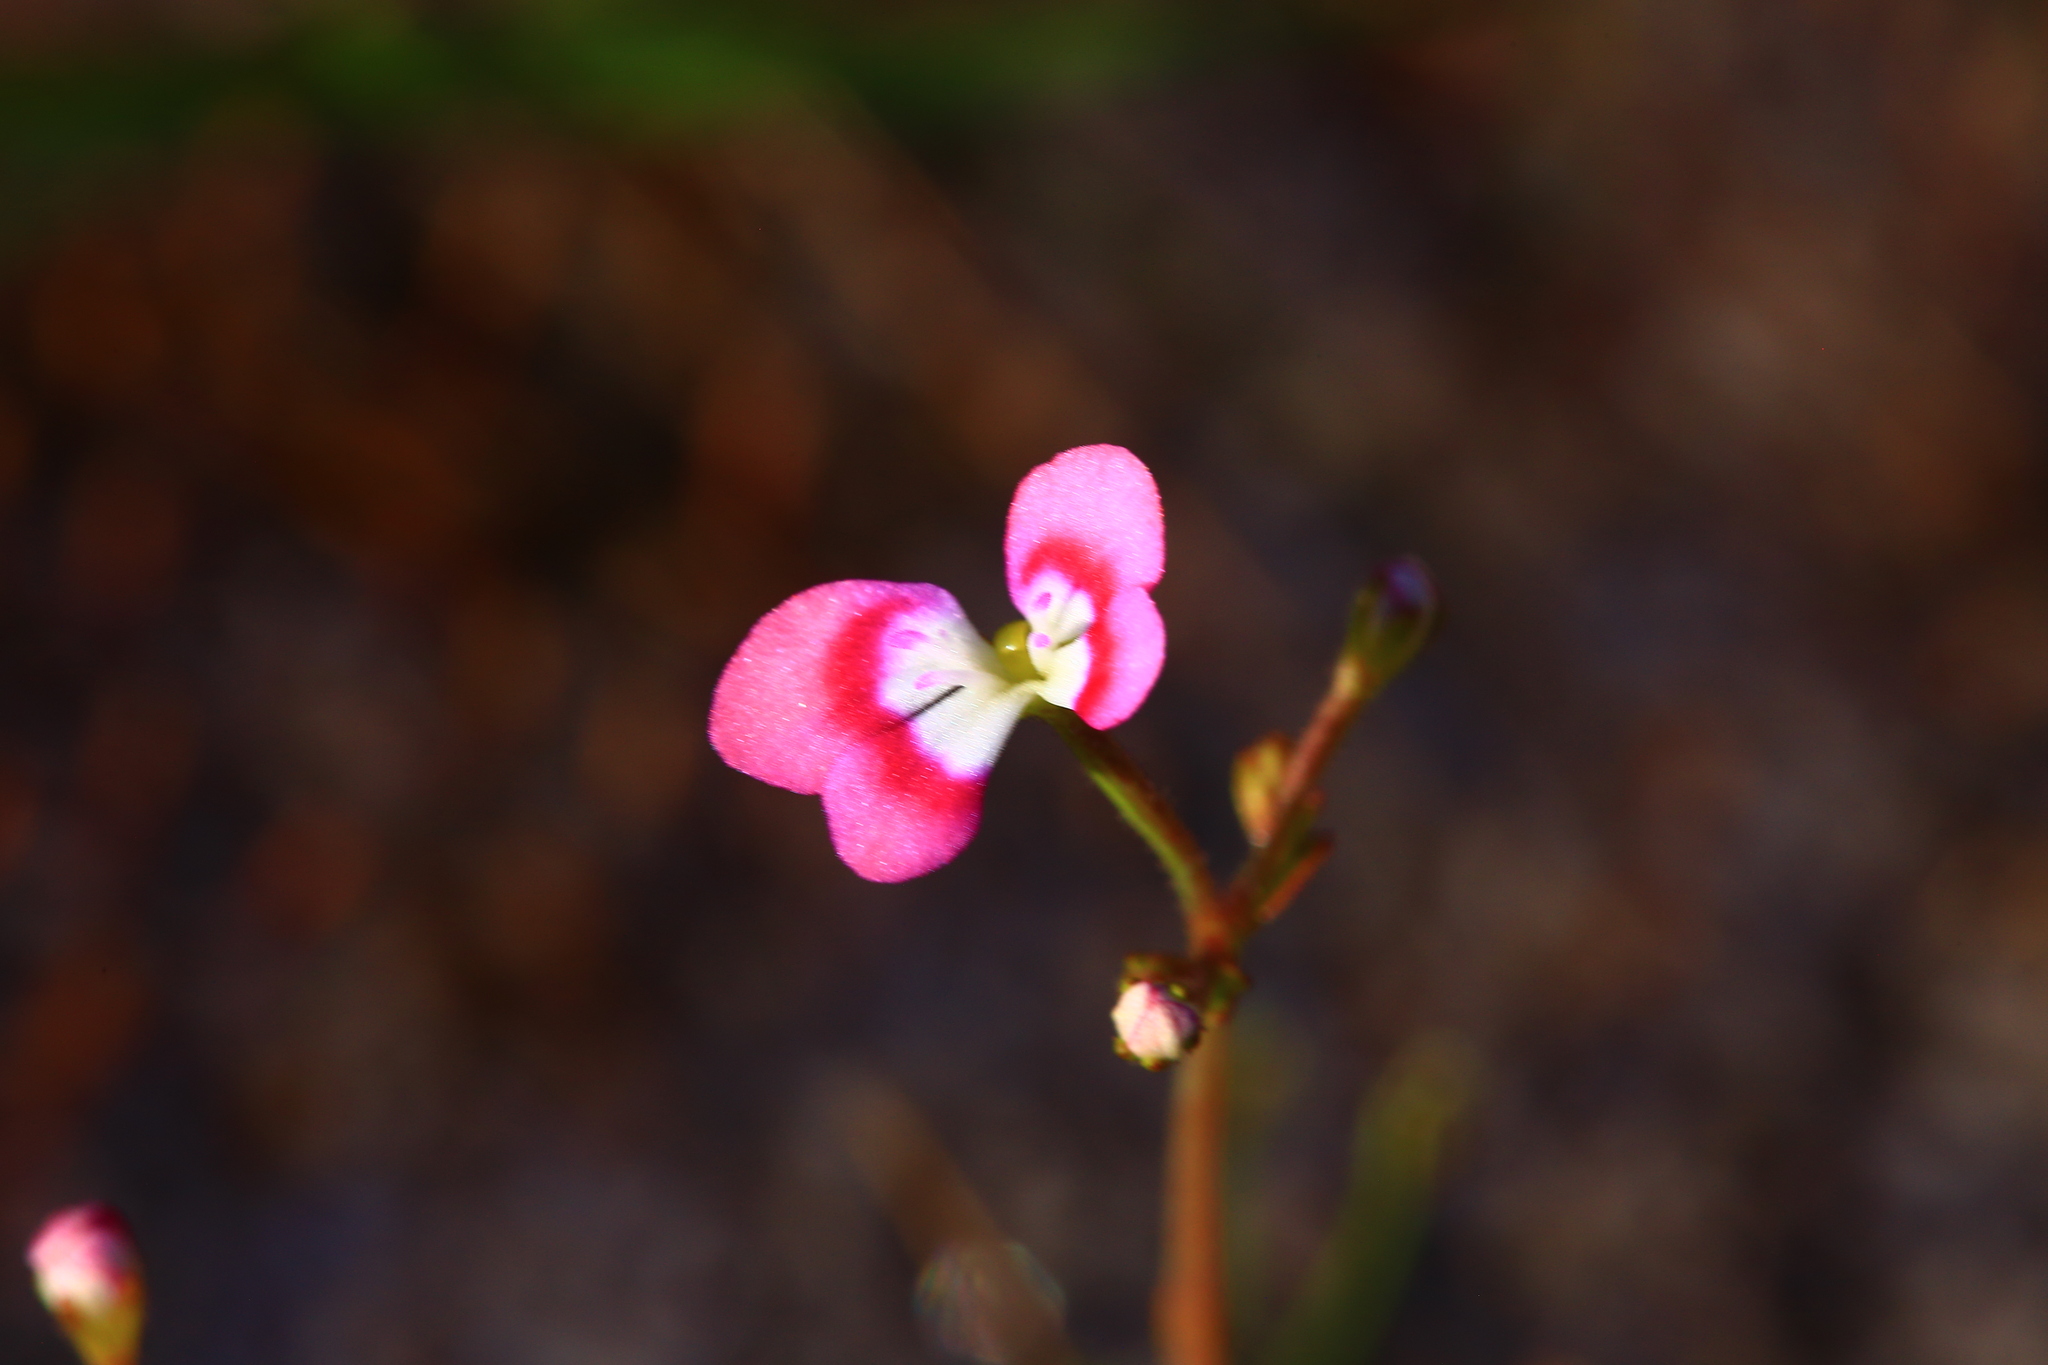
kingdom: Plantae
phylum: Tracheophyta
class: Magnoliopsida
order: Asterales
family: Stylidiaceae
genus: Stylidium
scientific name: Stylidium longitubum
